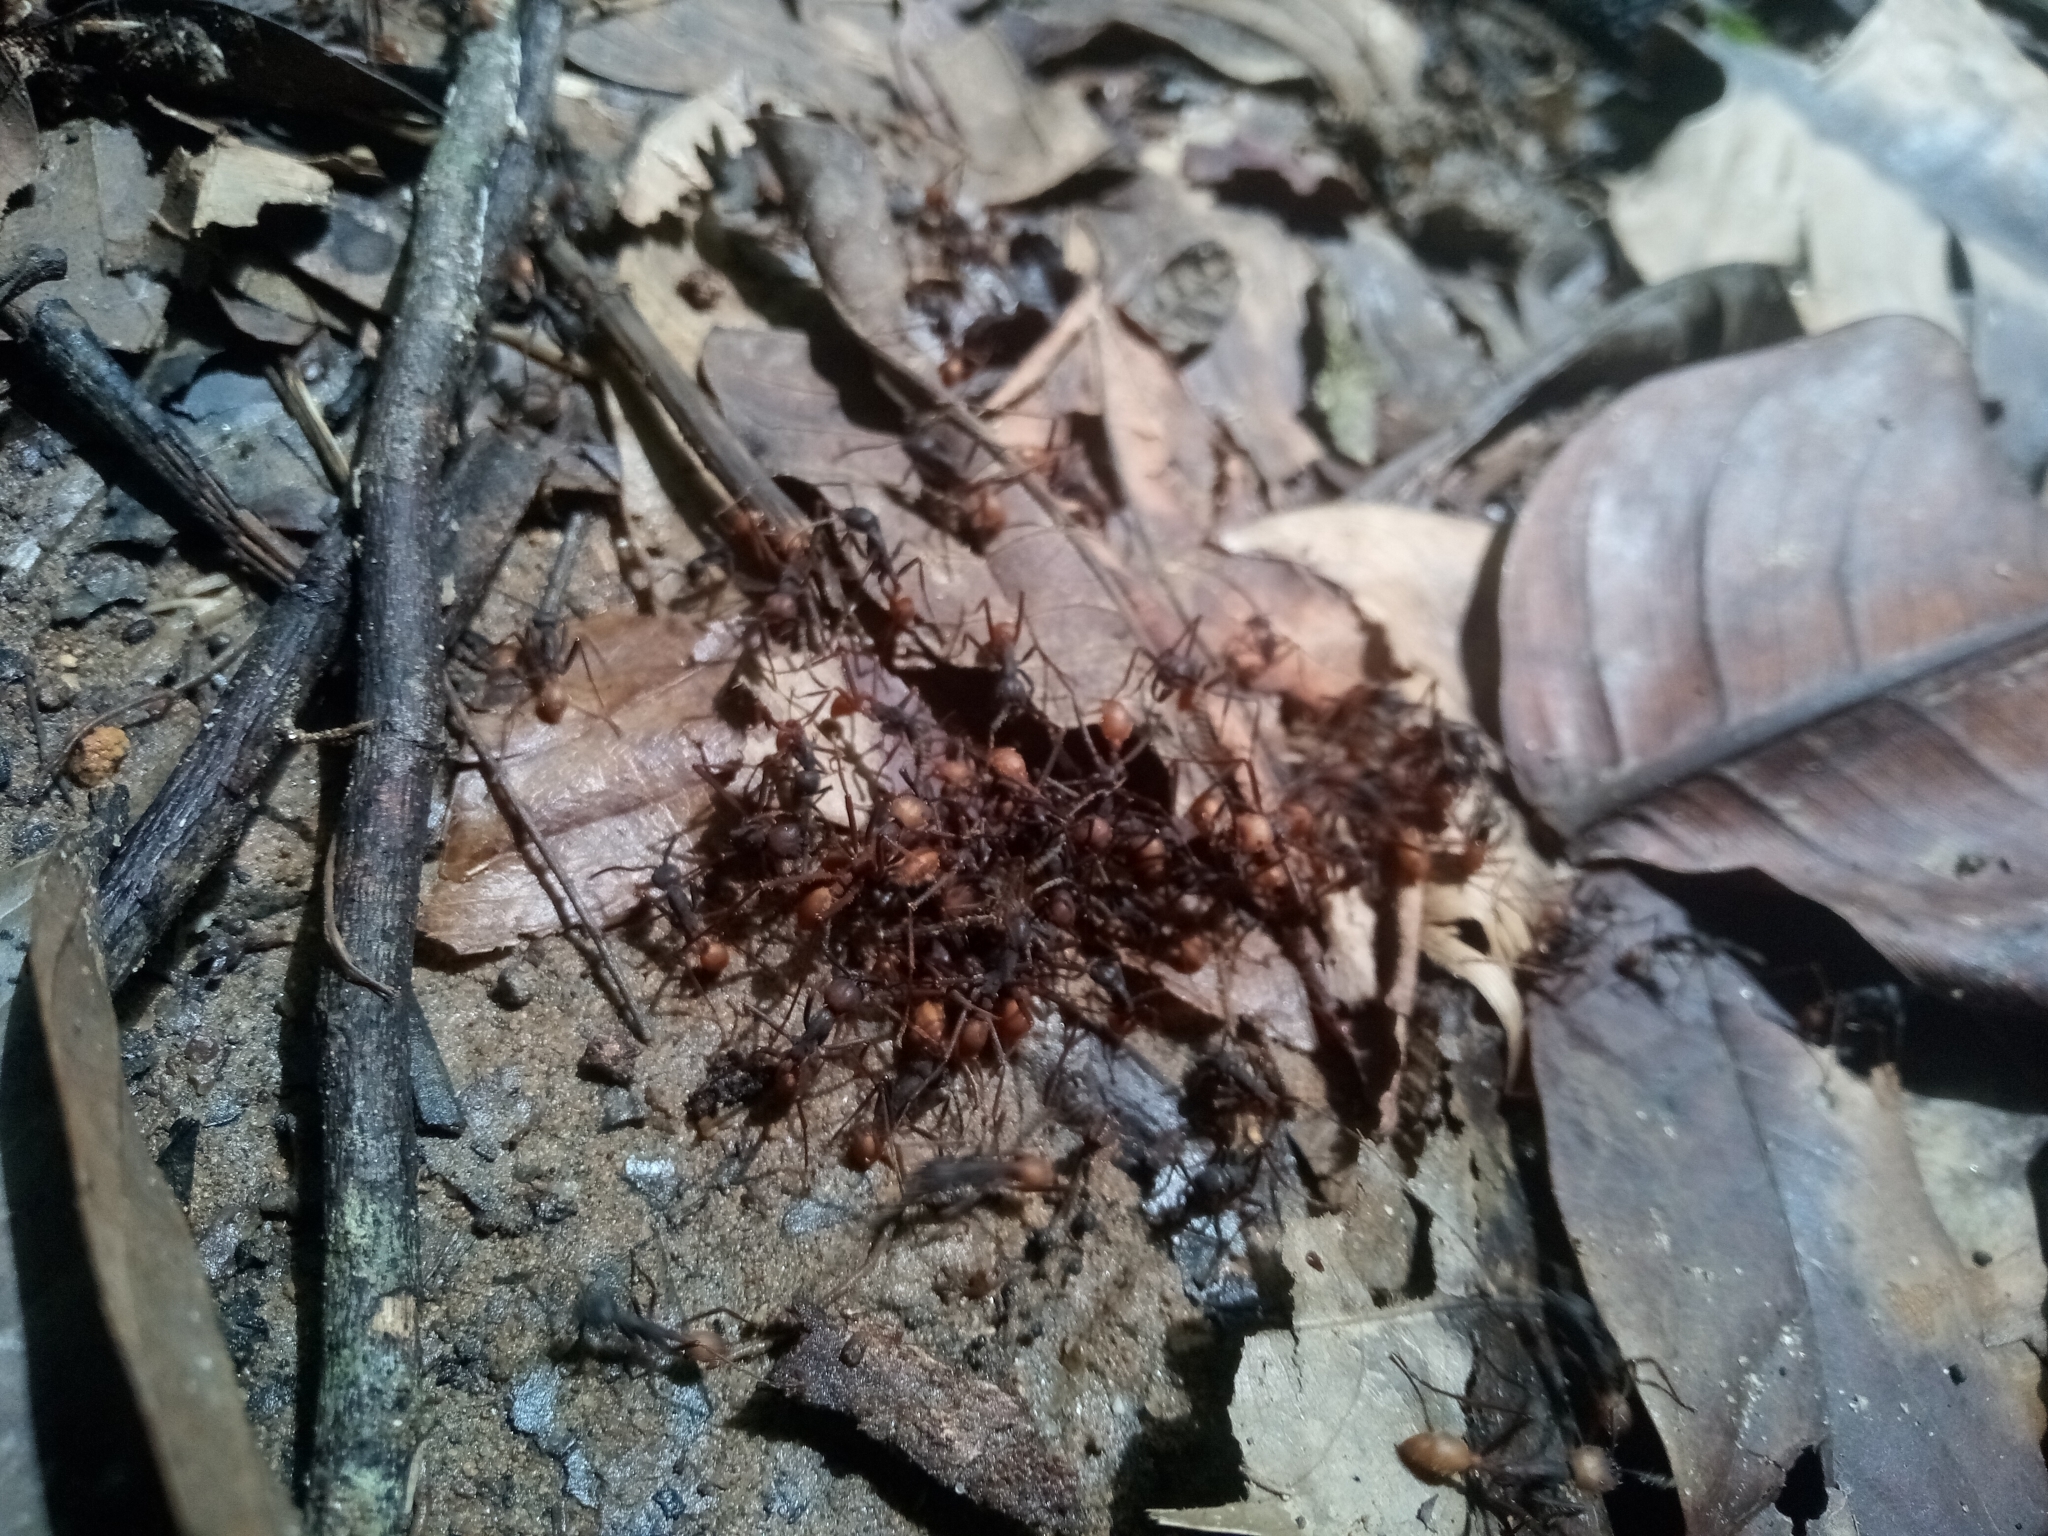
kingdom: Animalia
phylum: Arthropoda
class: Insecta
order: Hymenoptera
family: Formicidae
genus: Eciton
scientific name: Eciton burchellii
